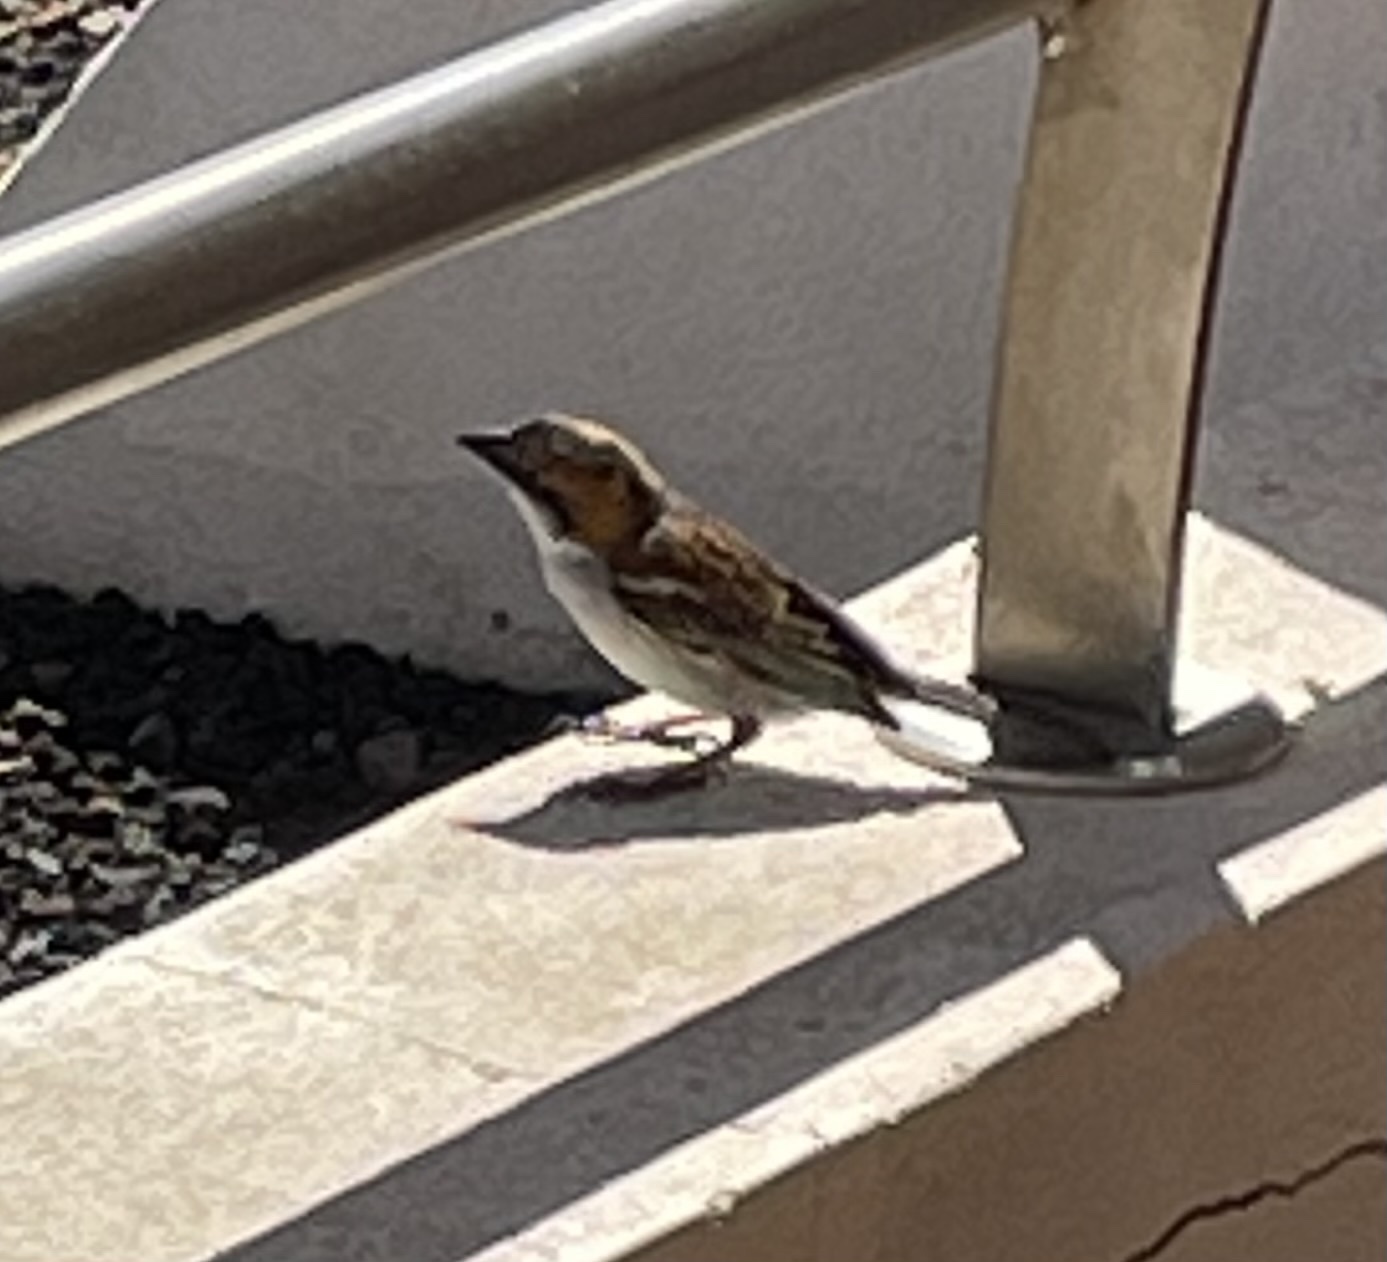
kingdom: Animalia
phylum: Chordata
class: Aves
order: Passeriformes
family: Passeridae
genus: Passer
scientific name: Passer iagoensis
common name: Iago sparrow
